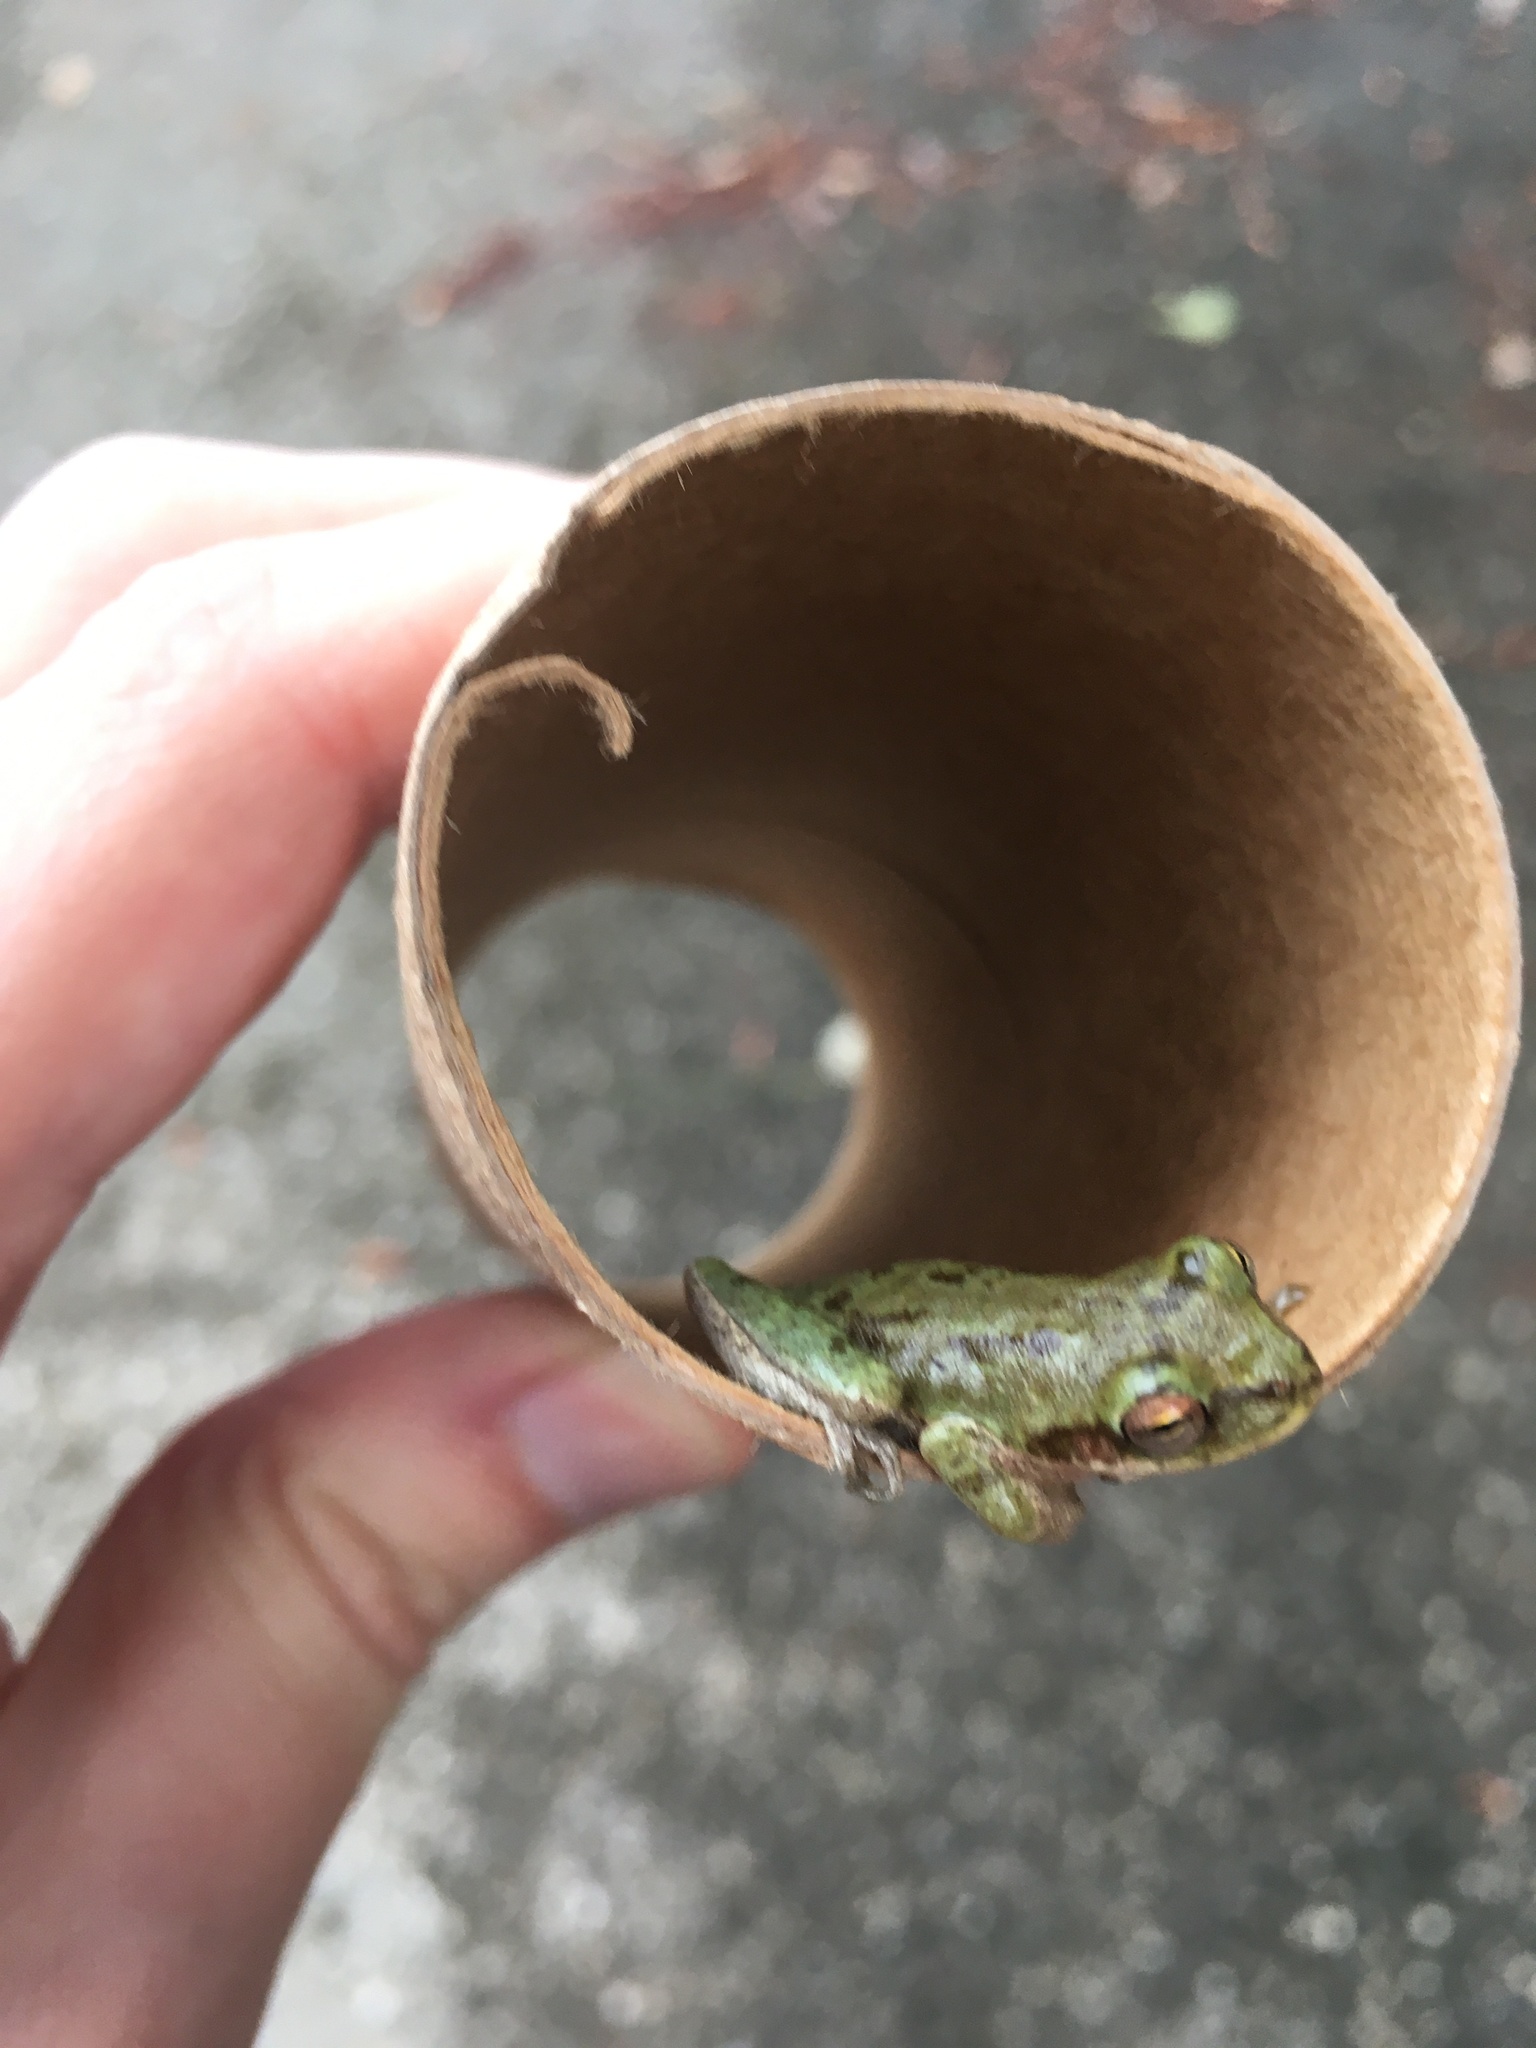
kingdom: Animalia
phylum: Chordata
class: Amphibia
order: Anura
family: Hylidae
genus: Dryophytes
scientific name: Dryophytes squirellus
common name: Squirrel treefrog
